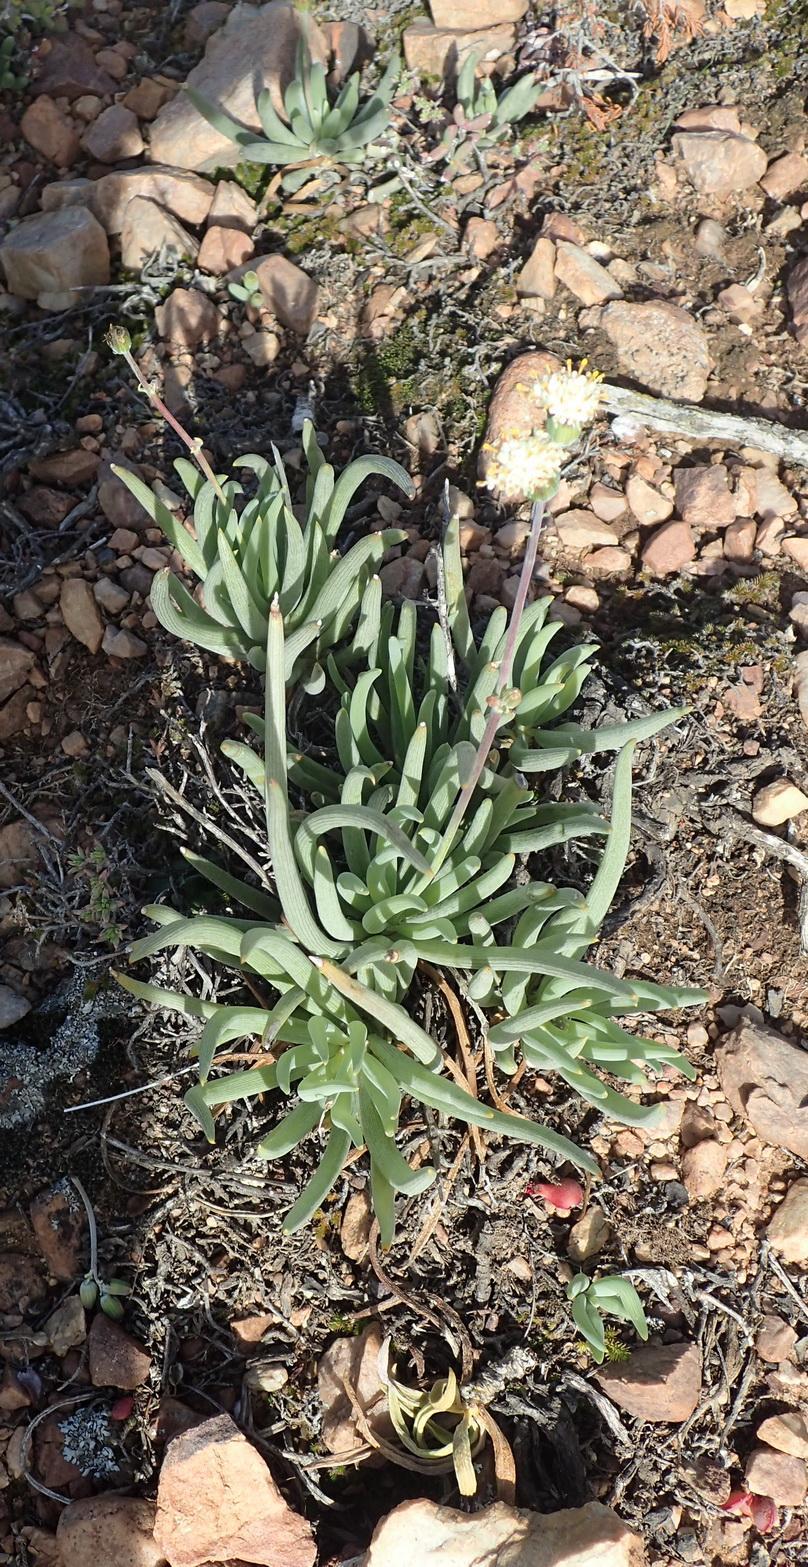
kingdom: Plantae
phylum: Tracheophyta
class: Magnoliopsida
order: Asterales
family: Asteraceae
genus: Curio
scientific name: Curio talinoides
